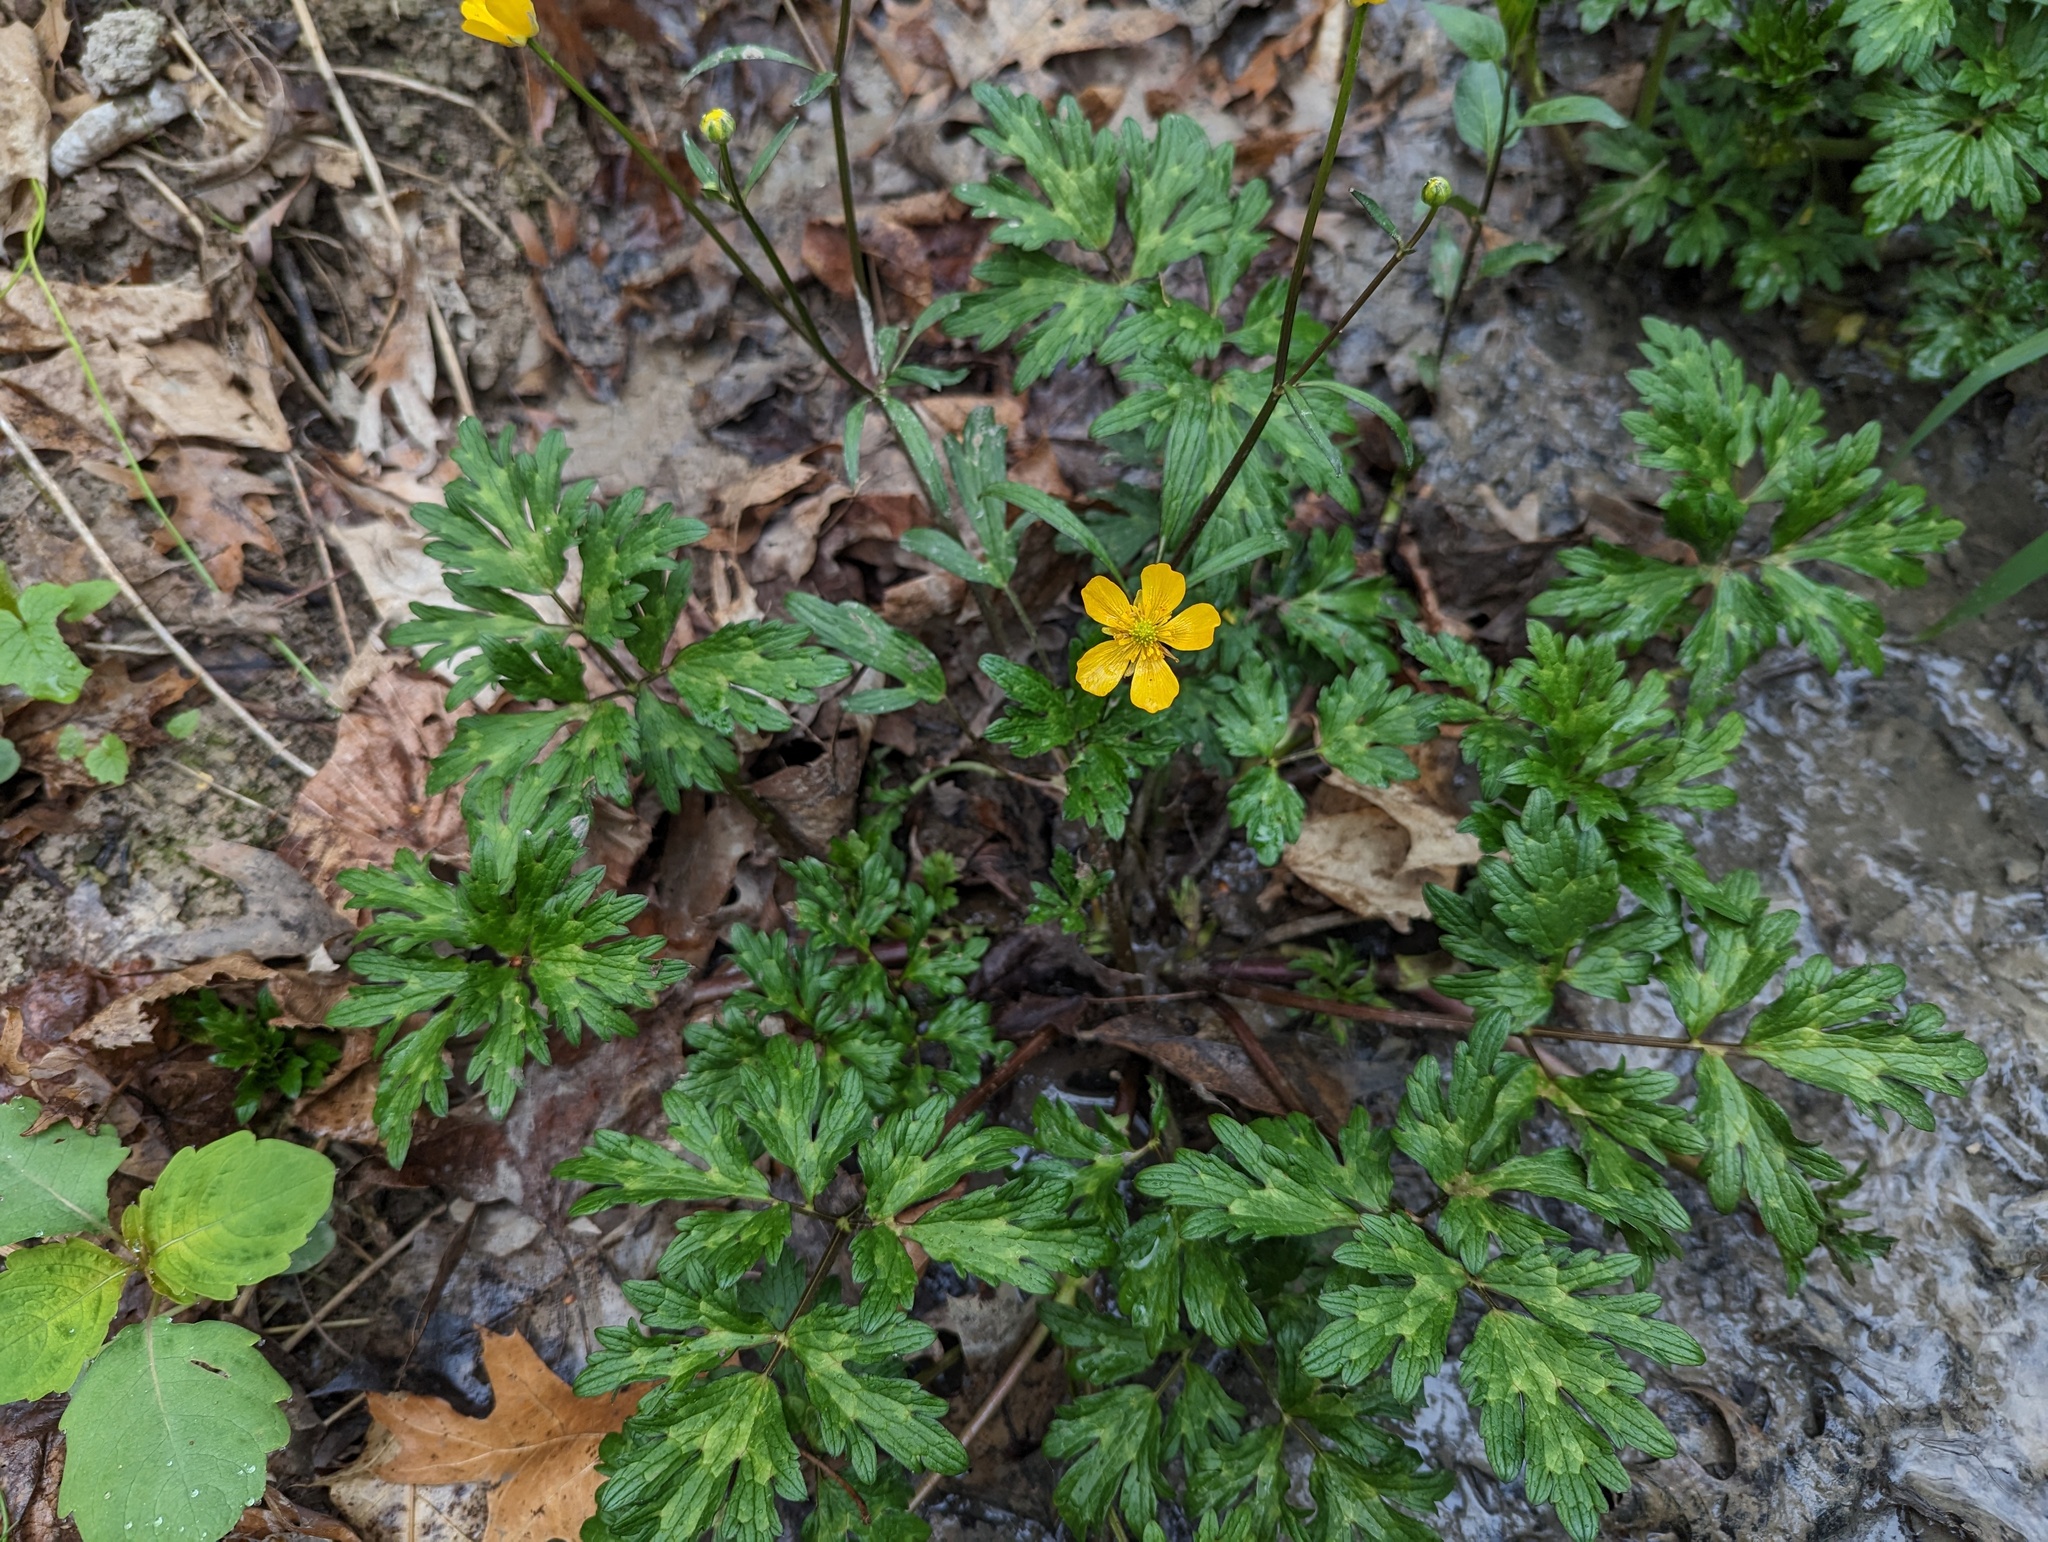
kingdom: Plantae
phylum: Tracheophyta
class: Magnoliopsida
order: Ranunculales
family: Ranunculaceae
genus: Ranunculus
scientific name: Ranunculus repens
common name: Creeping buttercup
